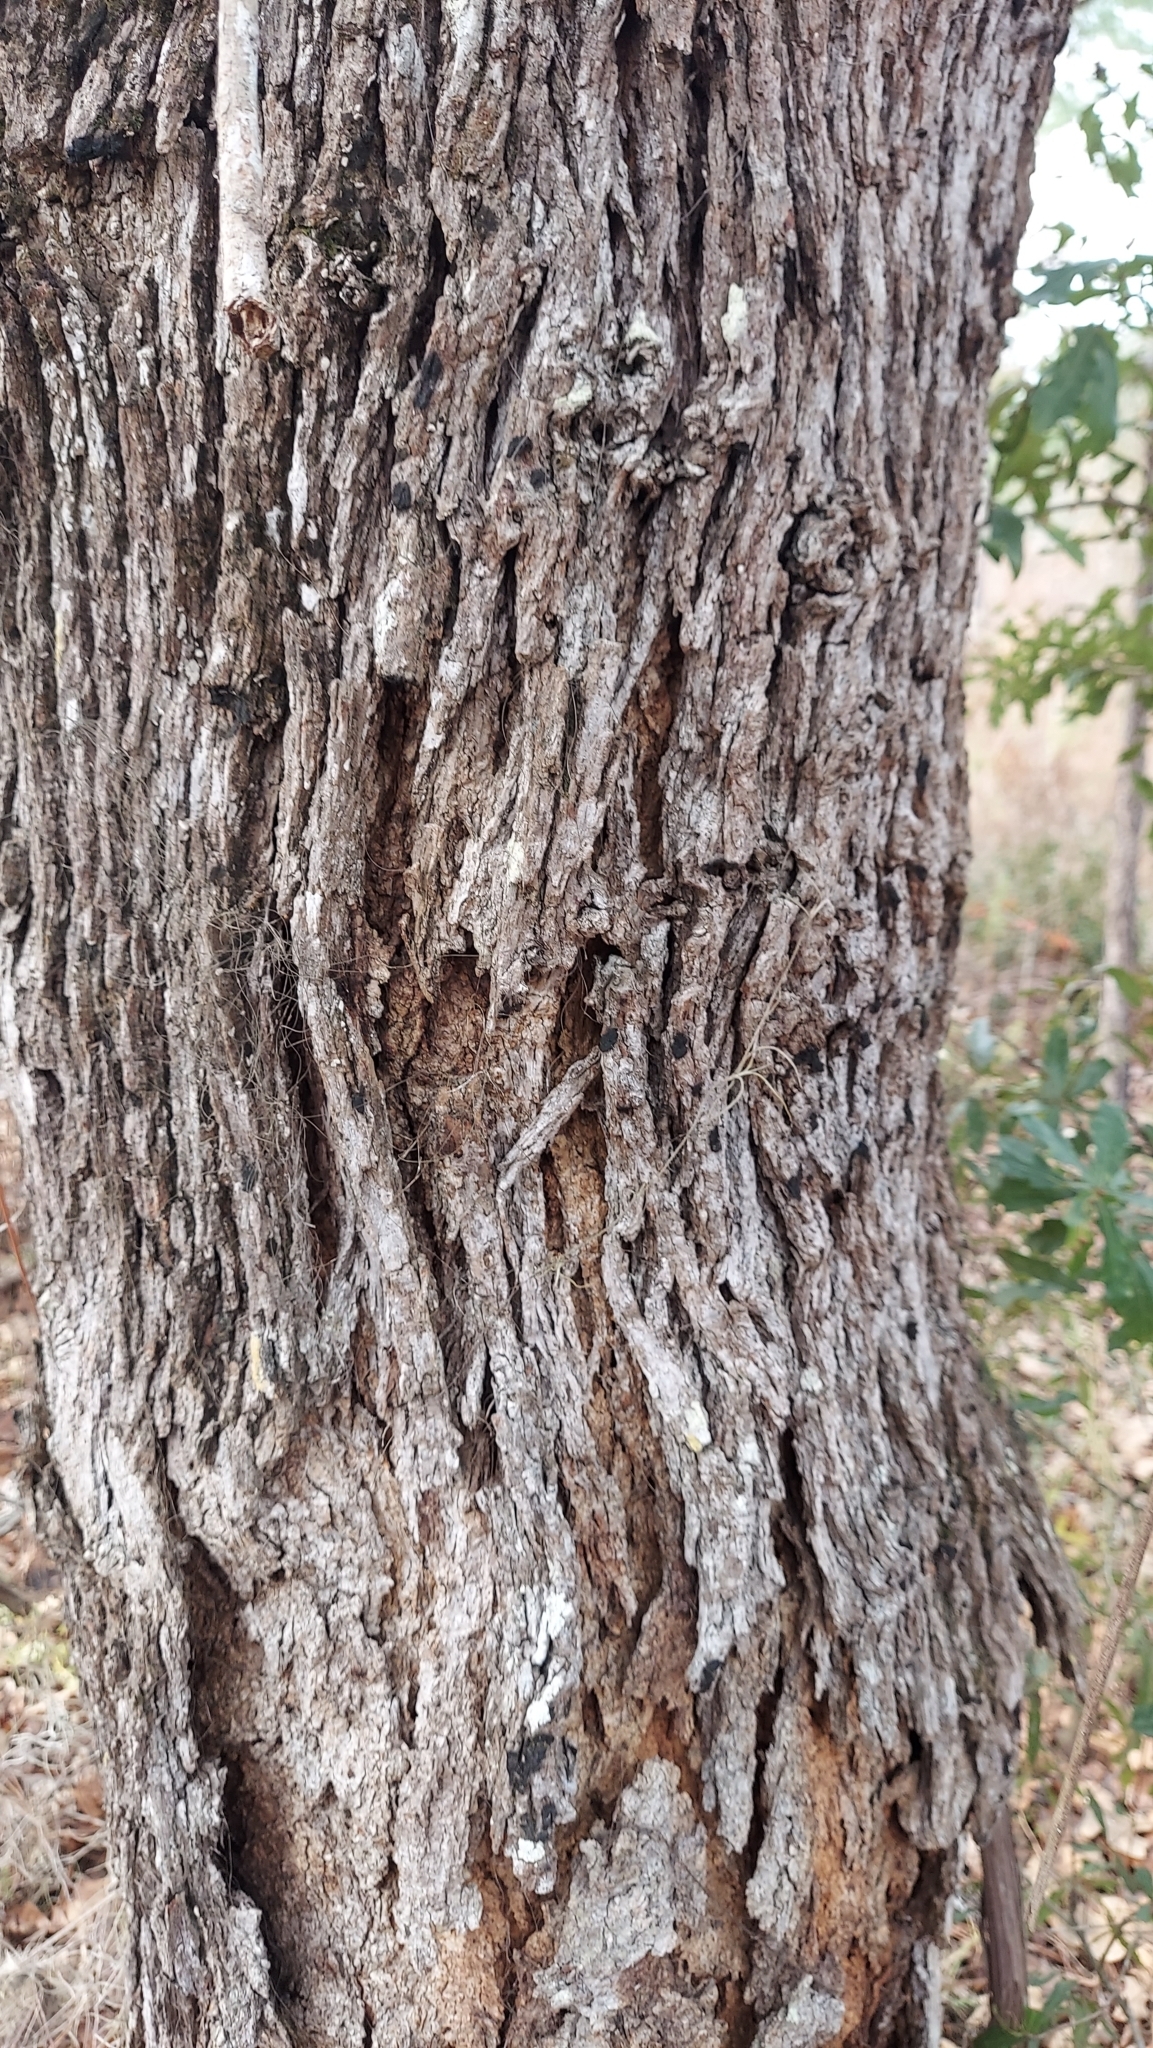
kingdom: Plantae
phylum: Tracheophyta
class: Magnoliopsida
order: Fagales
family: Fagaceae
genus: Quercus
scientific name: Quercus margaretiae
